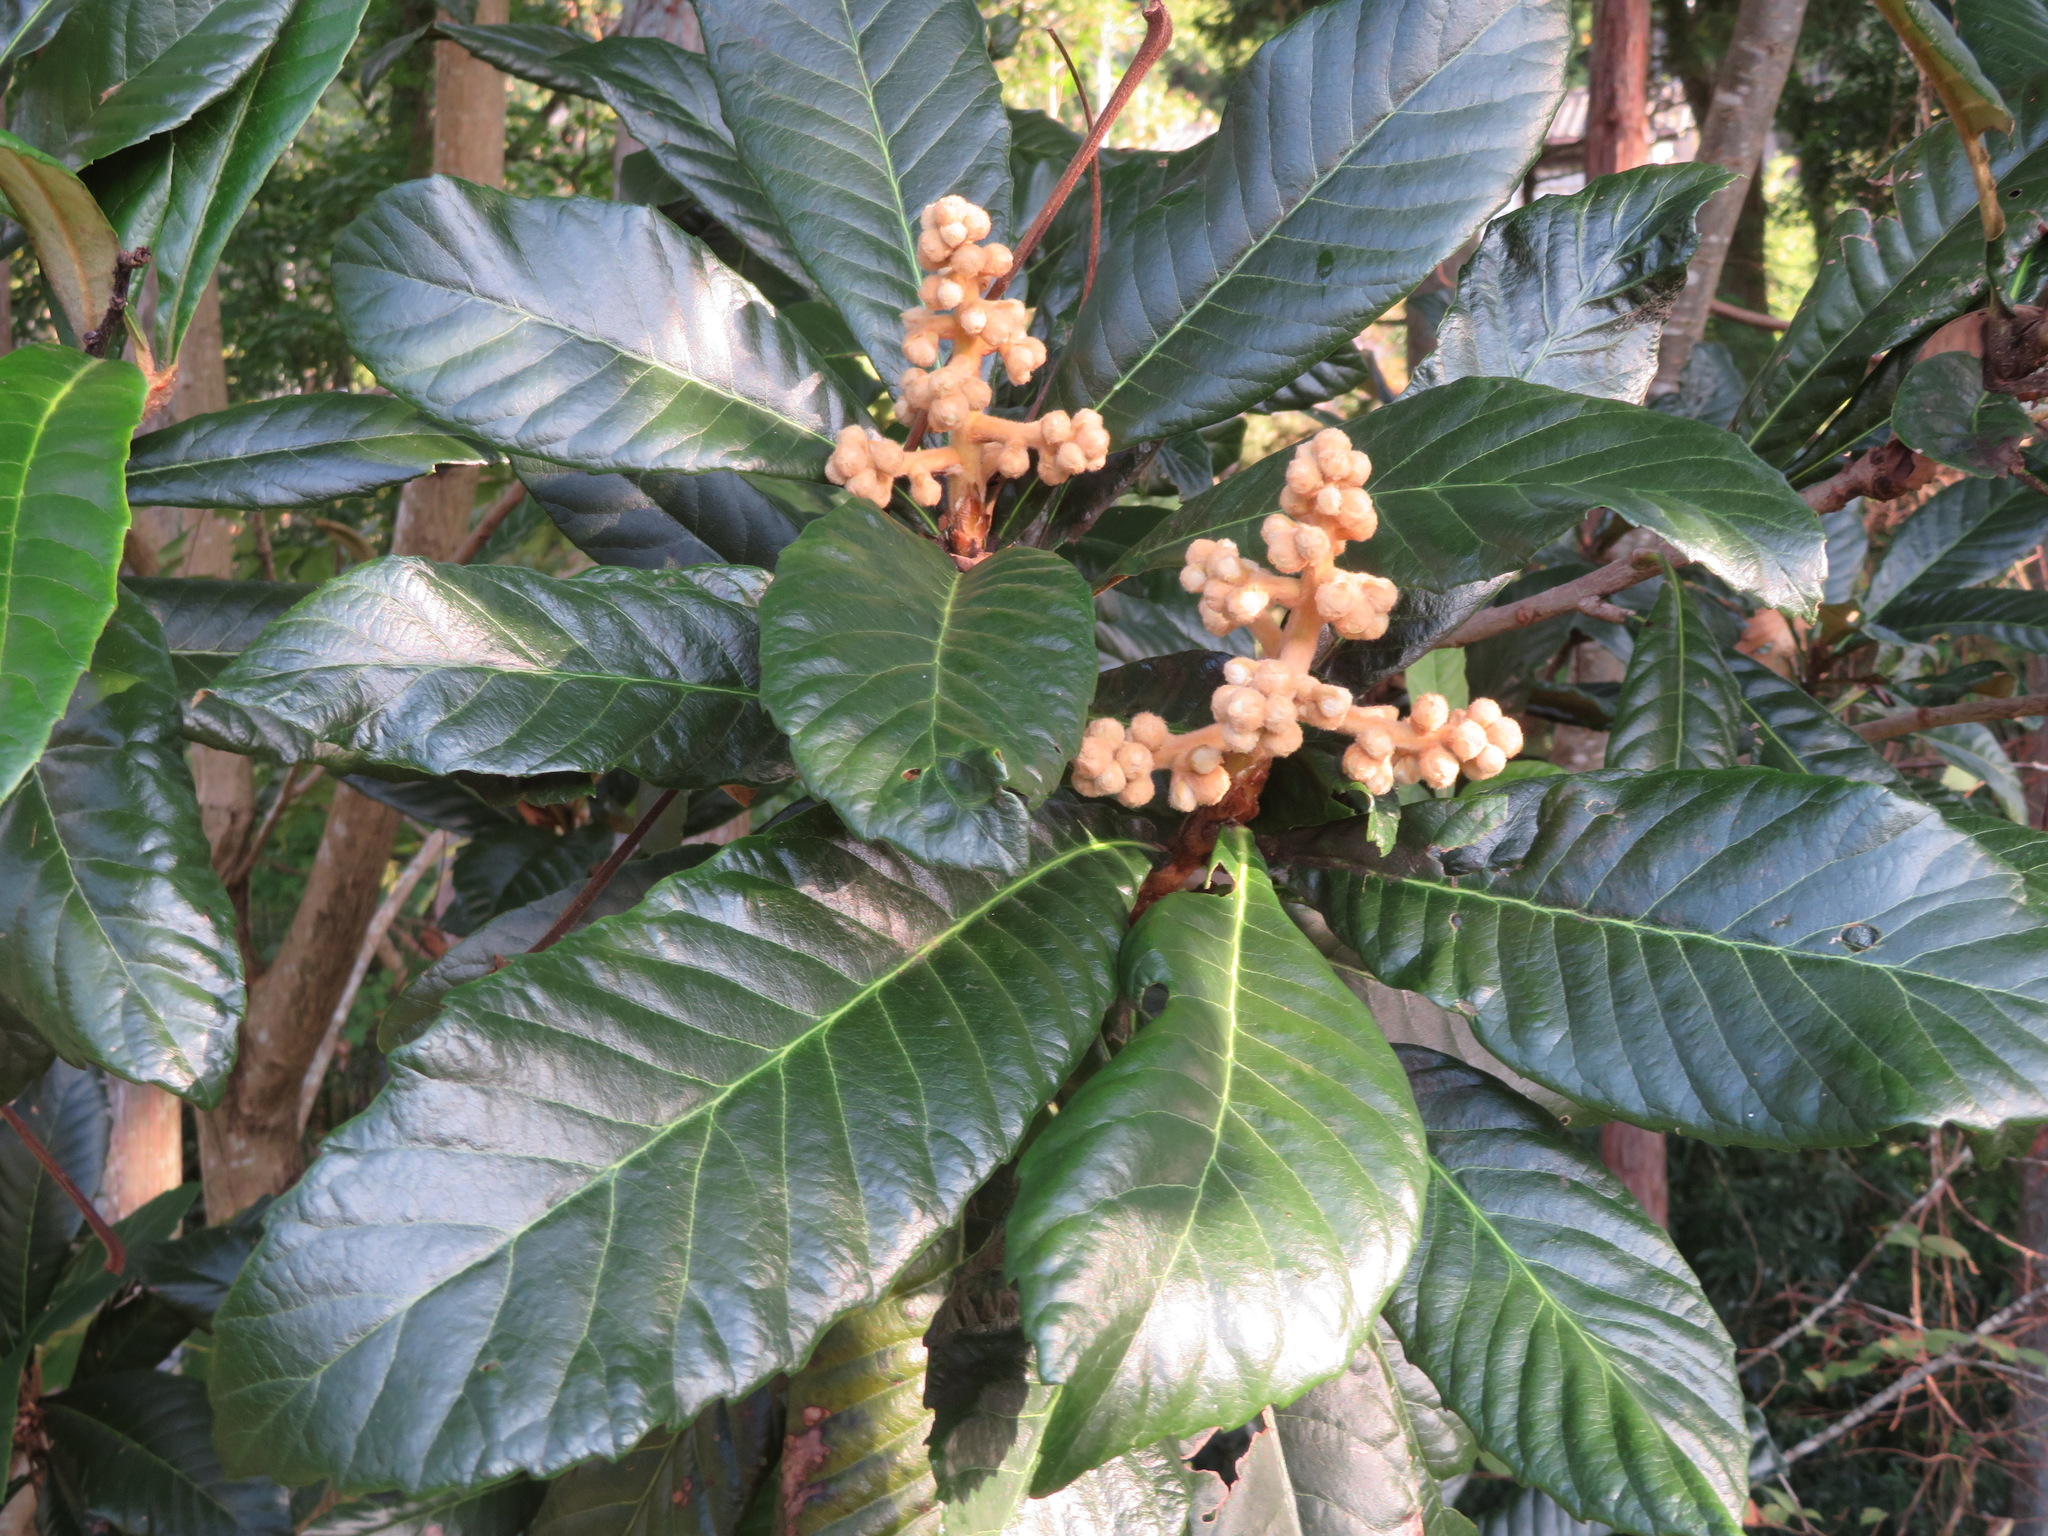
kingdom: Plantae
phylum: Tracheophyta
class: Magnoliopsida
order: Rosales
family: Rosaceae
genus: Rhaphiolepis
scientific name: Rhaphiolepis bibas
